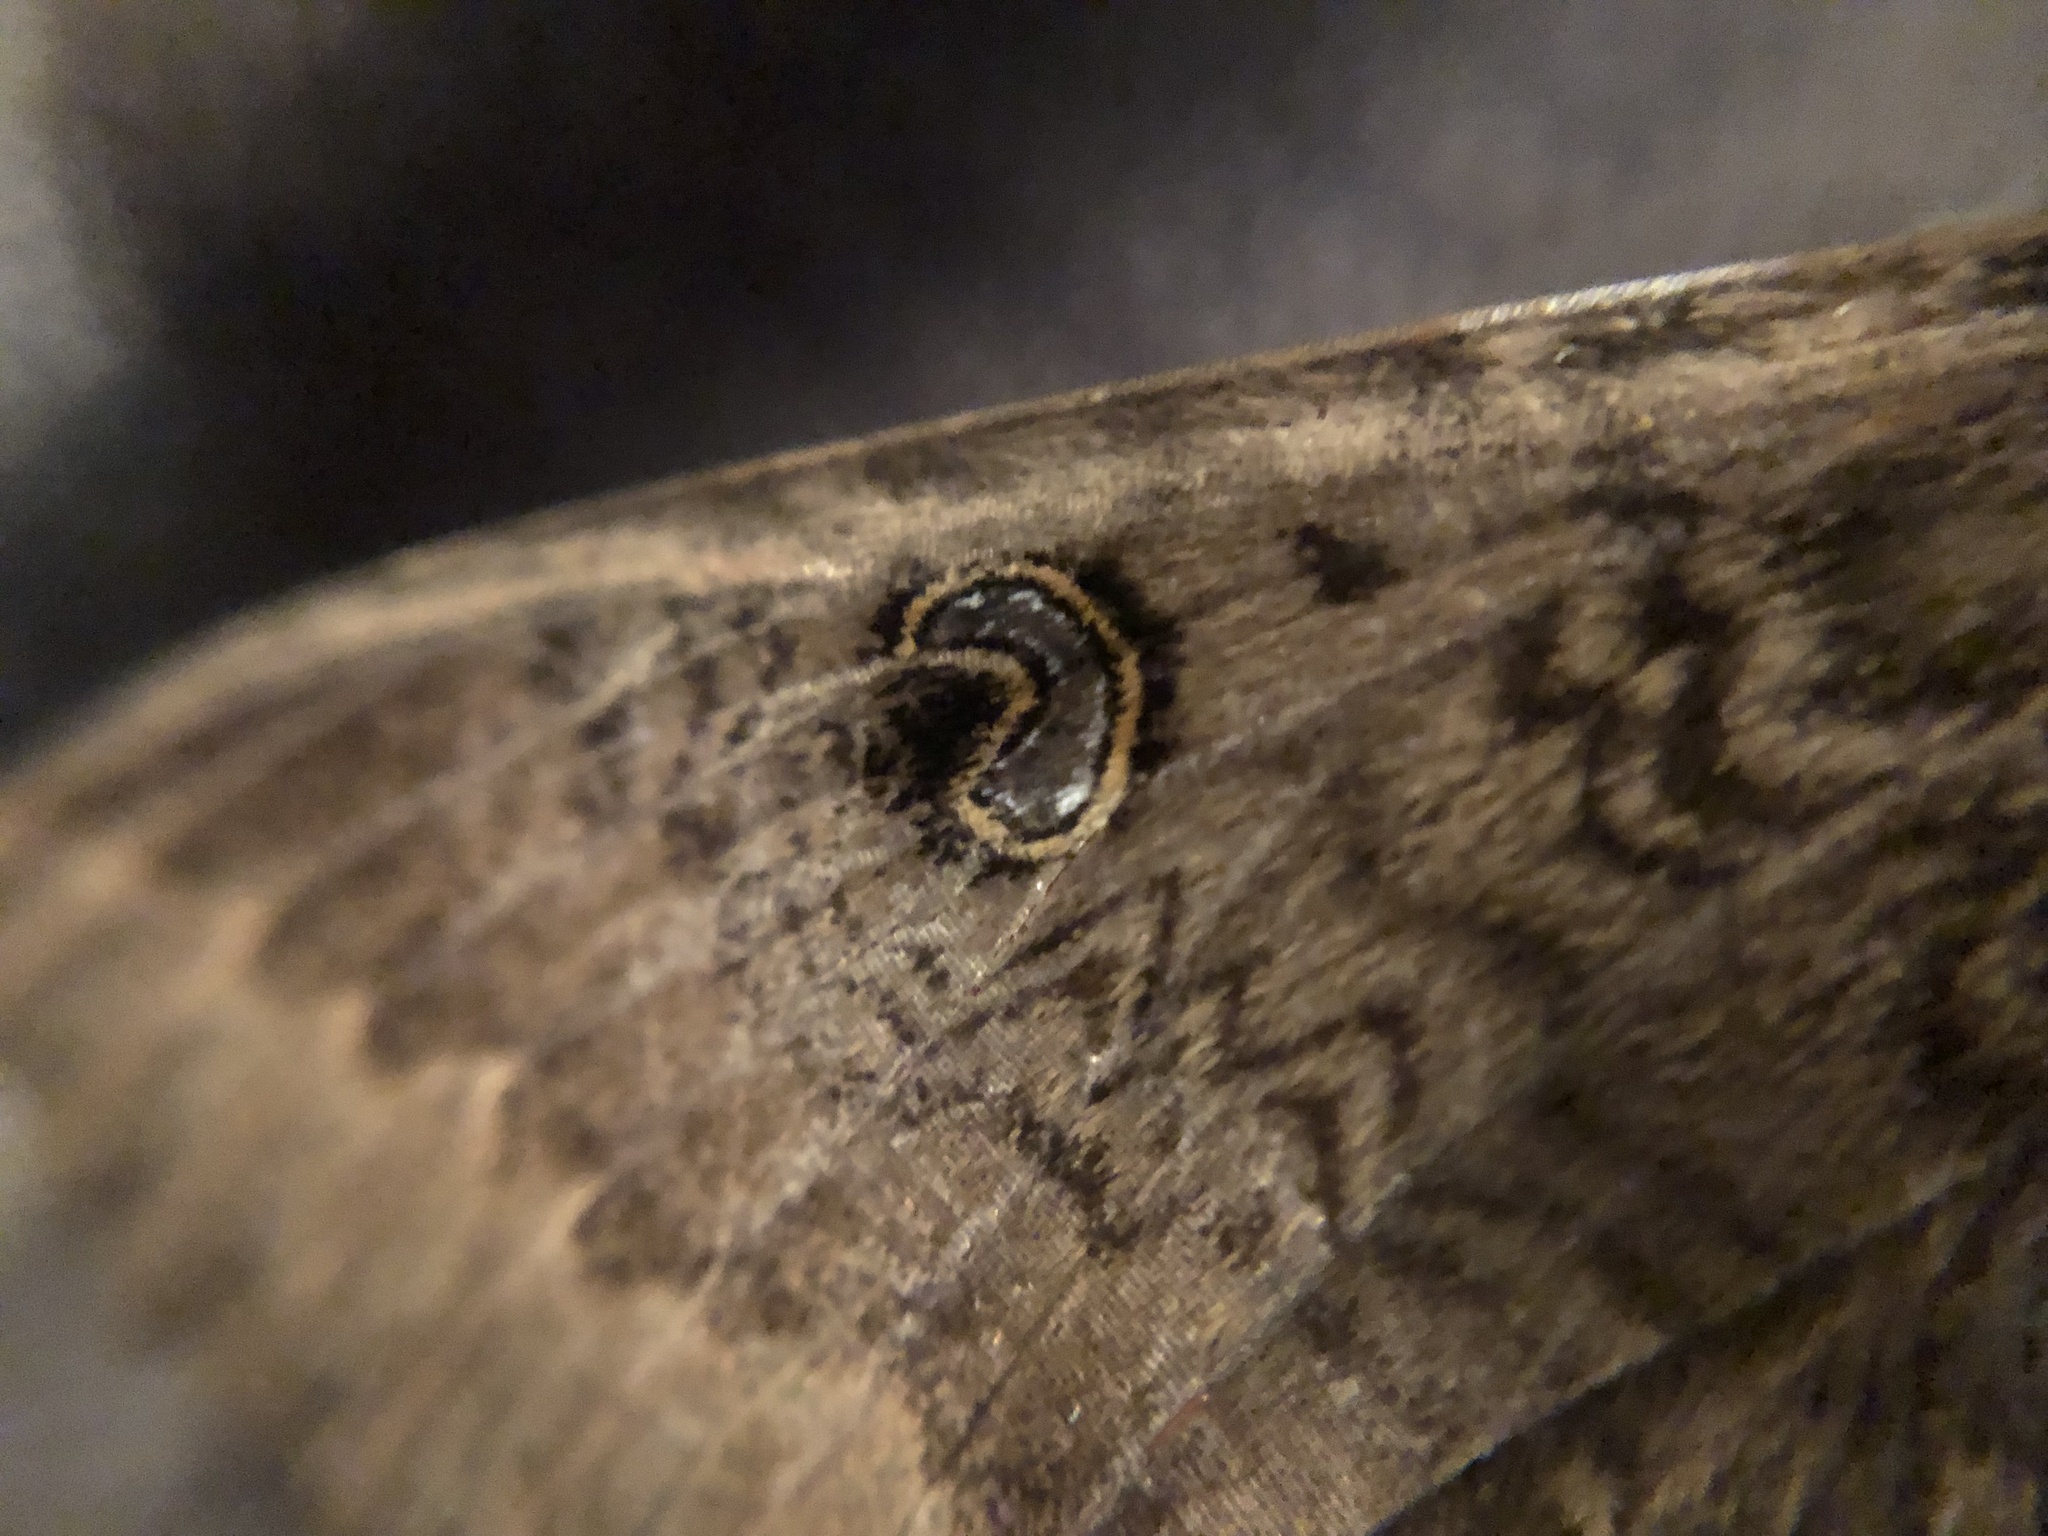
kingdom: Animalia
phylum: Arthropoda
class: Insecta
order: Lepidoptera
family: Erebidae
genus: Dasypodia
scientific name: Dasypodia cymatodes
